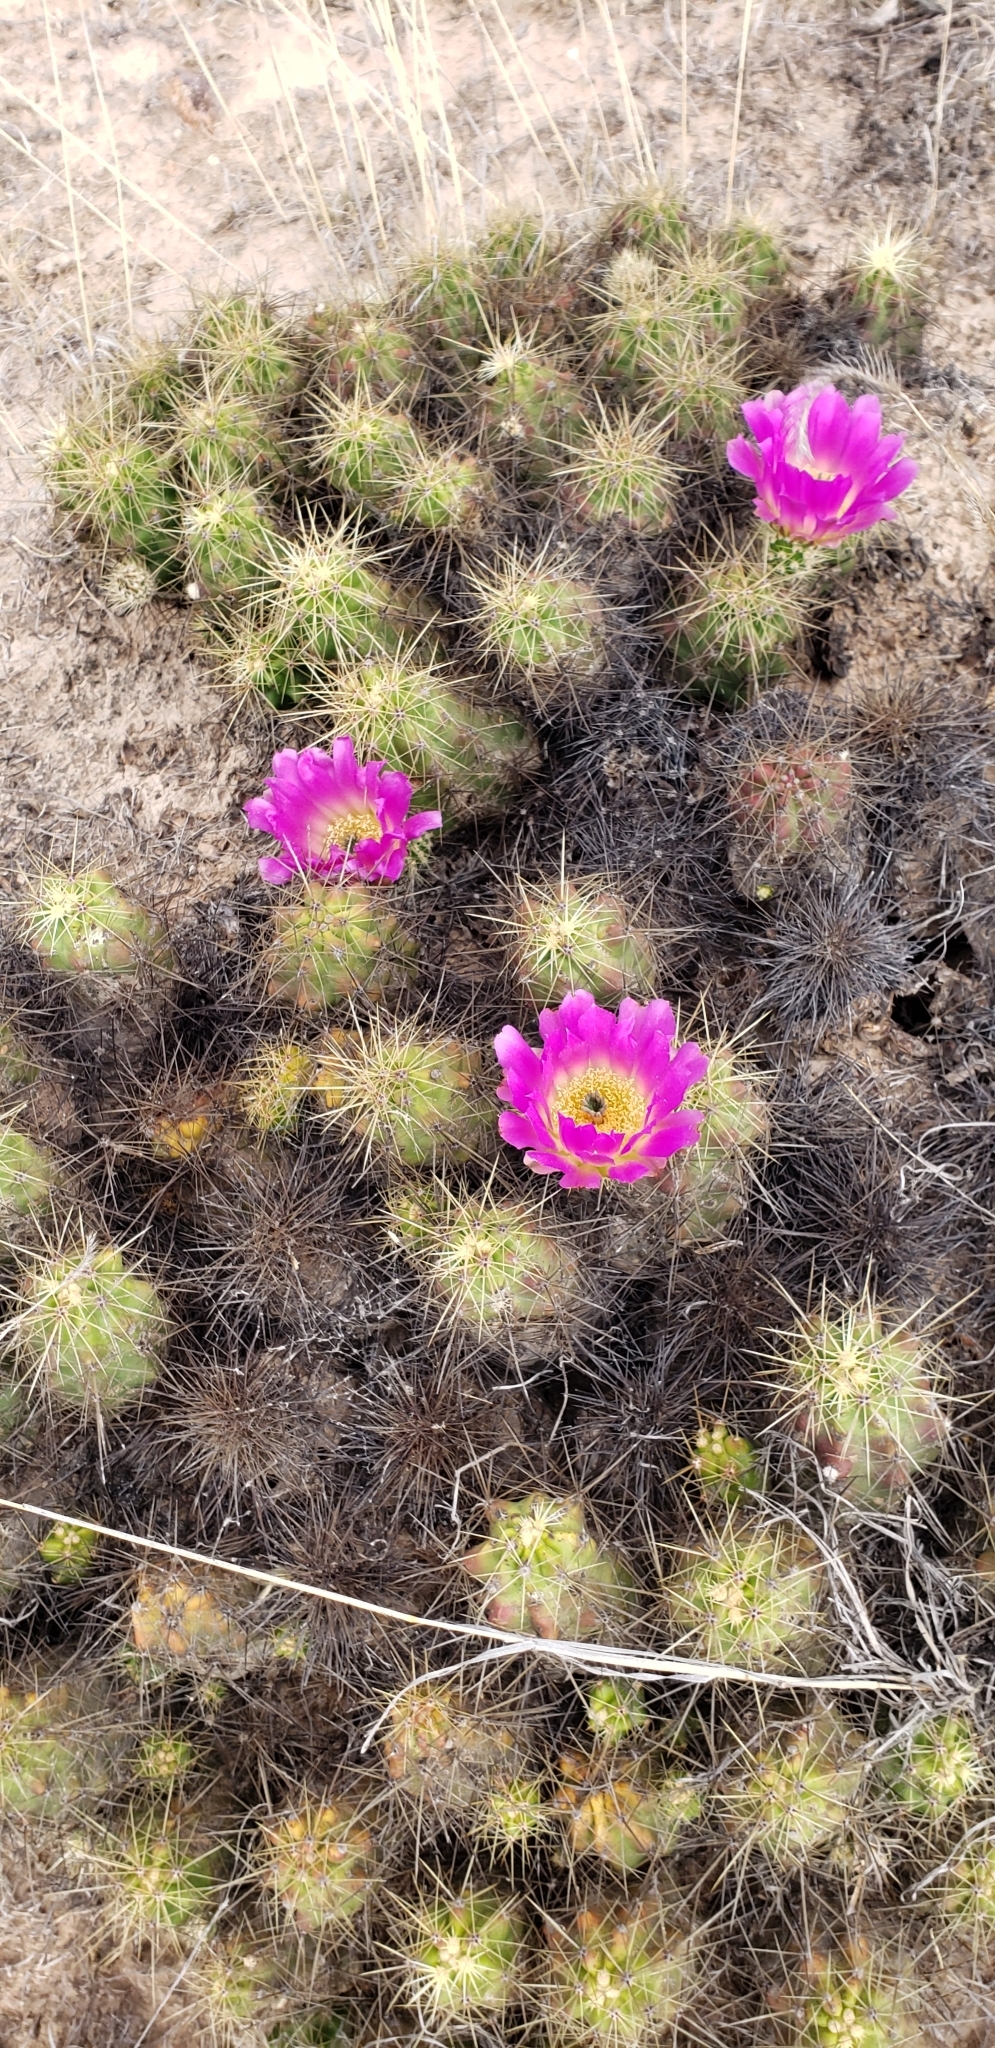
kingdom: Plantae
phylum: Tracheophyta
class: Magnoliopsida
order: Caryophyllales
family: Cactaceae
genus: Echinocereus
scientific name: Echinocereus cinerascens
